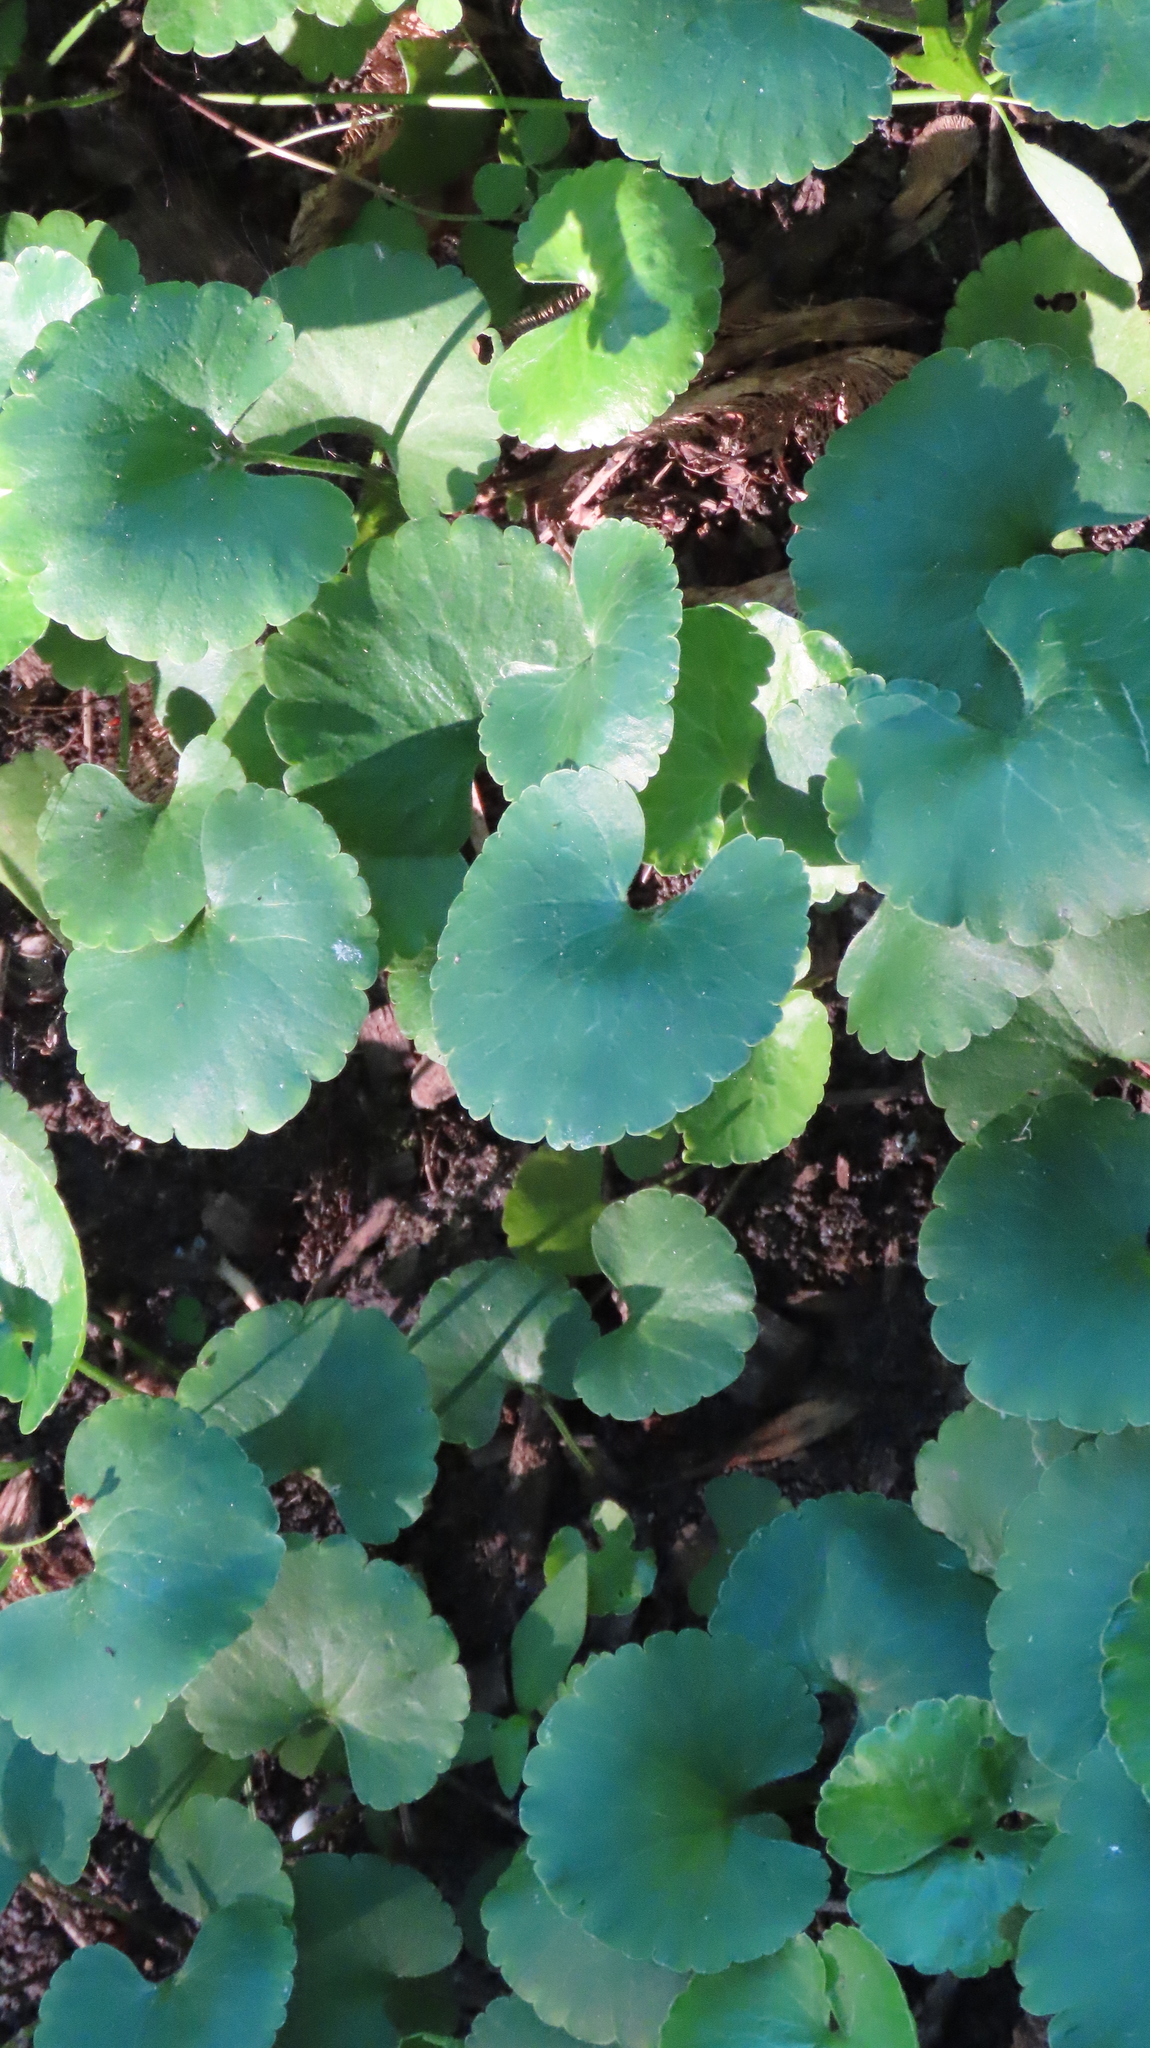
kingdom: Plantae
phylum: Tracheophyta
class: Magnoliopsida
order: Ranunculales
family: Ranunculaceae
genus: Ranunculus
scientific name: Ranunculus abortivus
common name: Early wood buttercup
